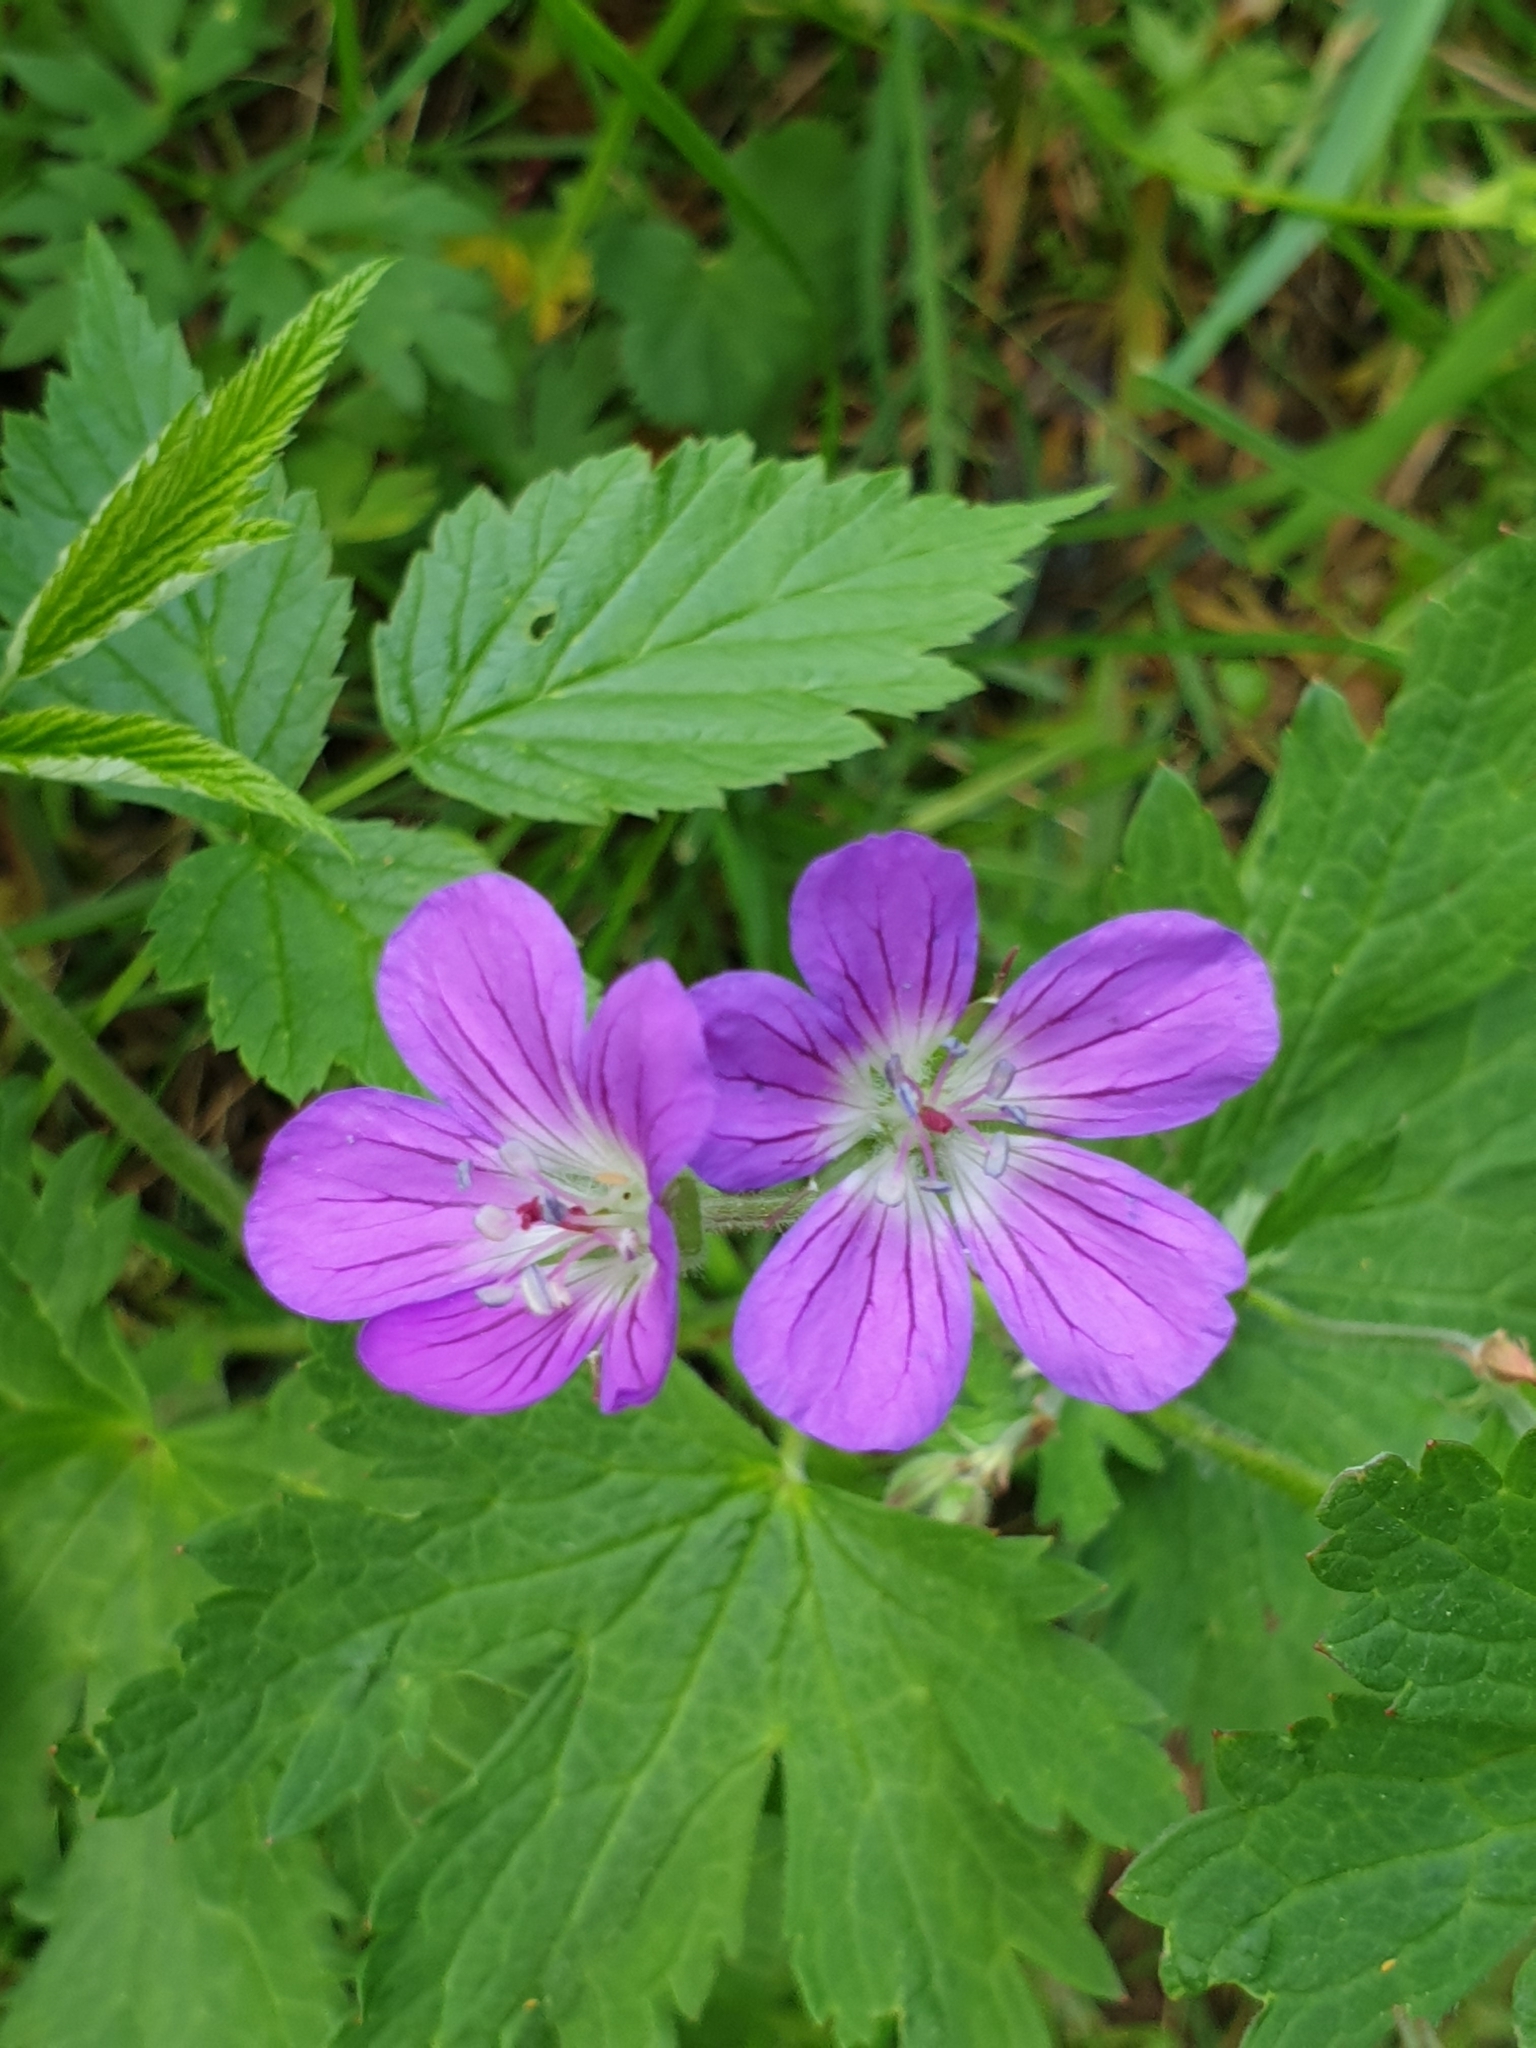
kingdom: Plantae
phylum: Tracheophyta
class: Magnoliopsida
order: Geraniales
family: Geraniaceae
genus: Geranium
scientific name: Geranium sylvaticum
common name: Wood crane's-bill
